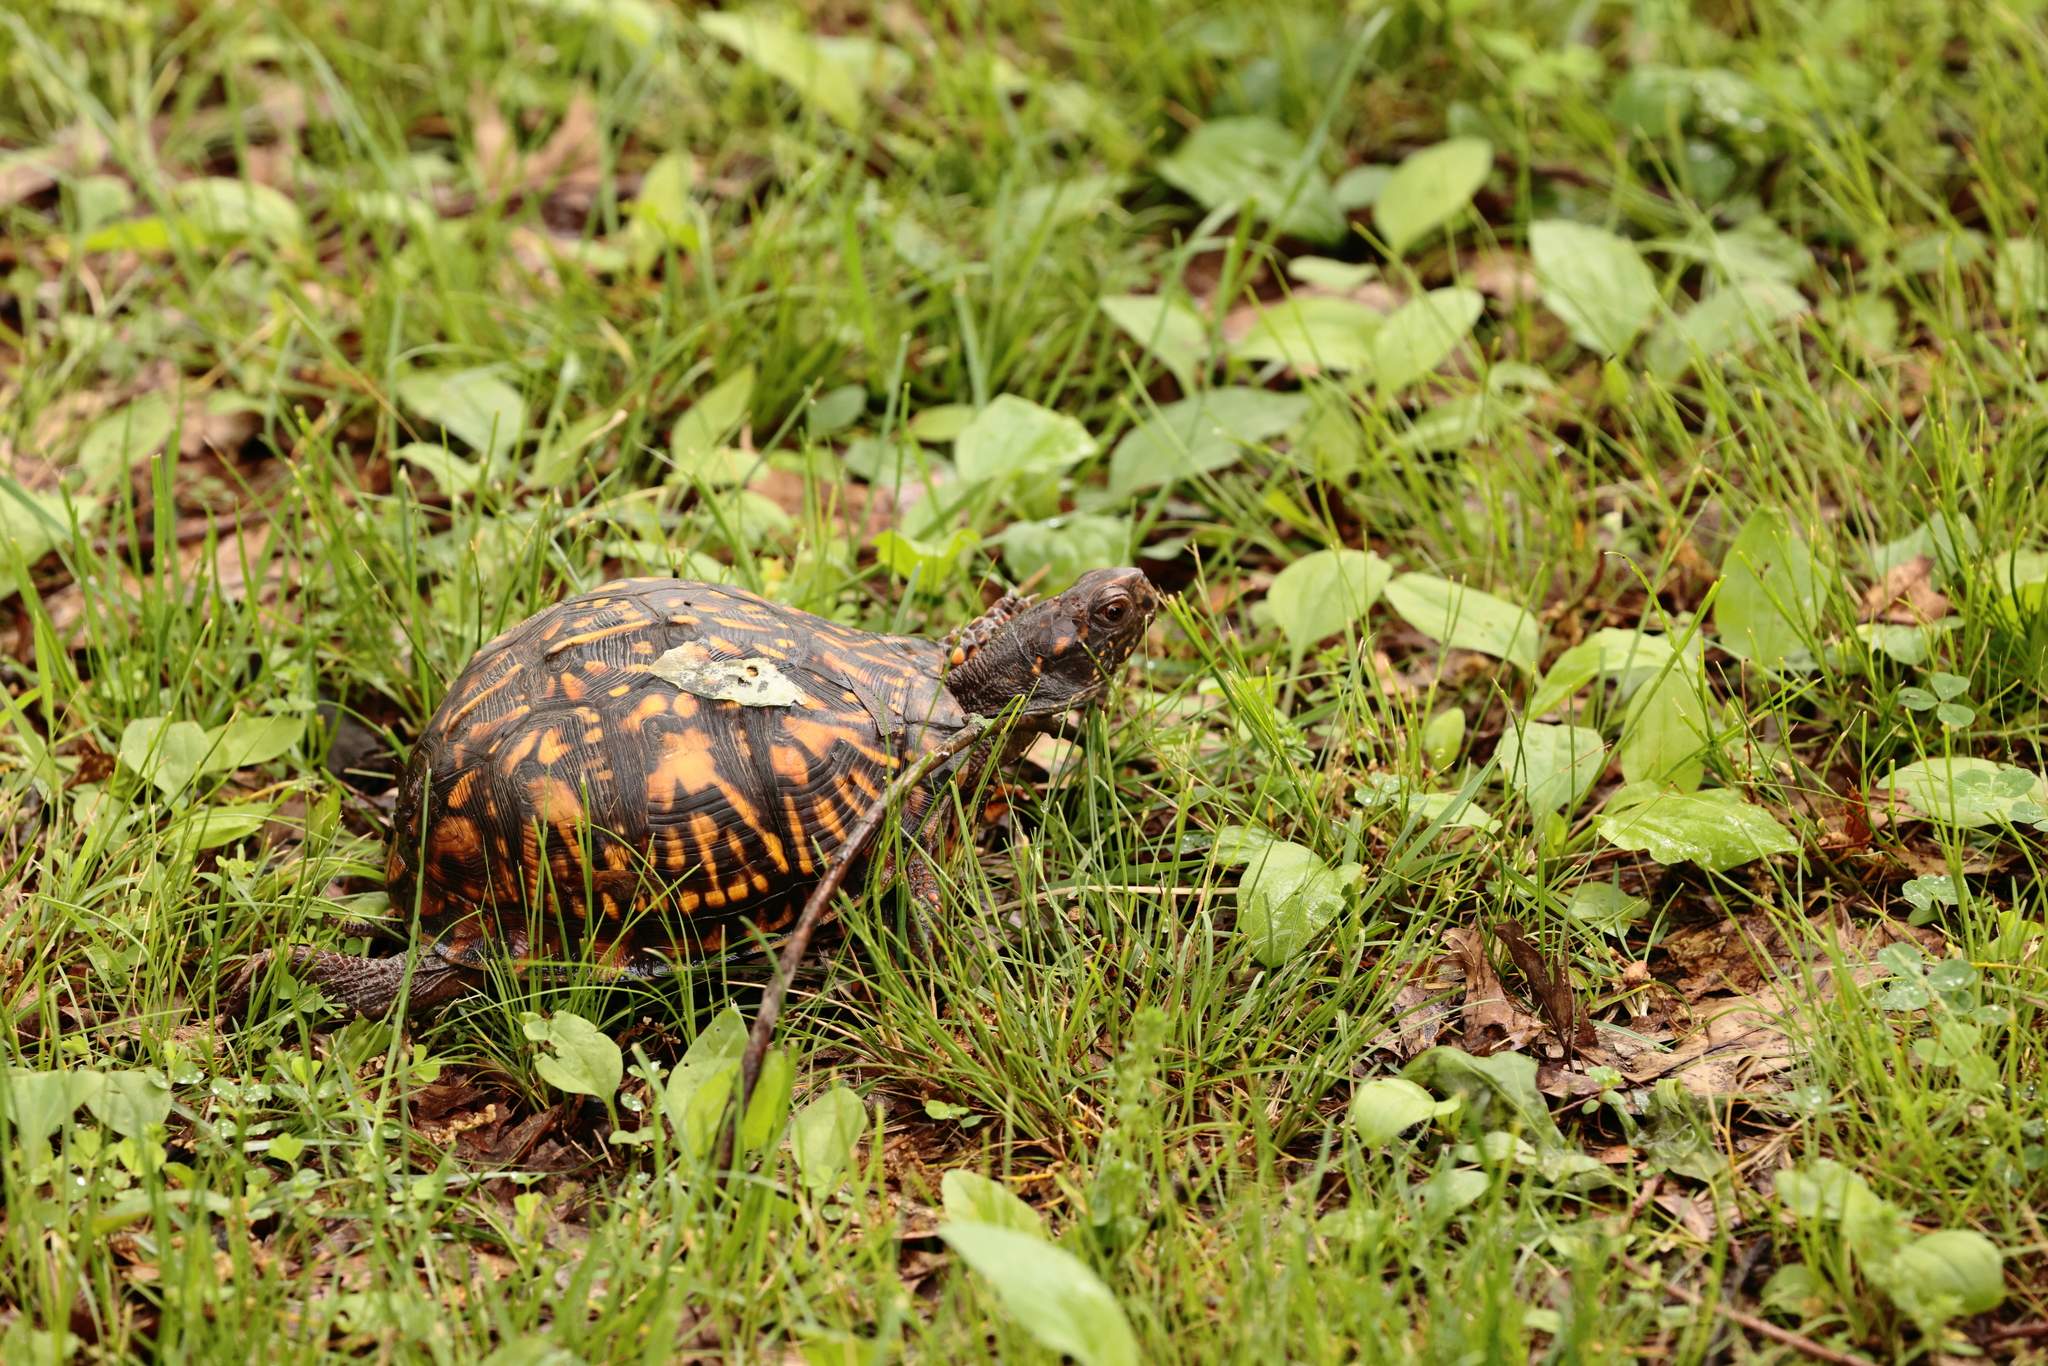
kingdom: Animalia
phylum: Chordata
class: Testudines
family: Emydidae
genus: Terrapene
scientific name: Terrapene carolina
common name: Common box turtle
